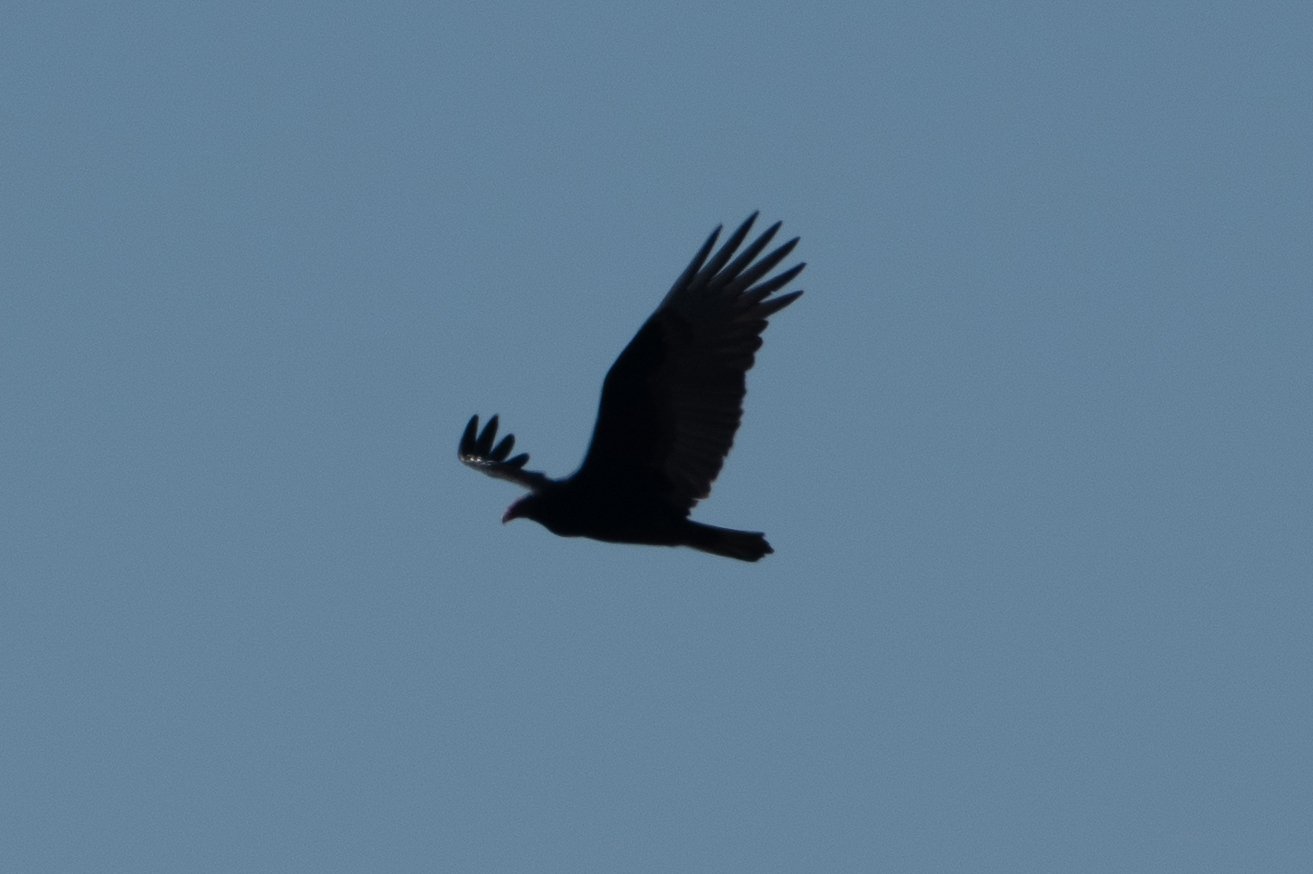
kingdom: Animalia
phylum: Chordata
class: Aves
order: Accipitriformes
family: Cathartidae
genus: Cathartes
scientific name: Cathartes aura
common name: Turkey vulture
